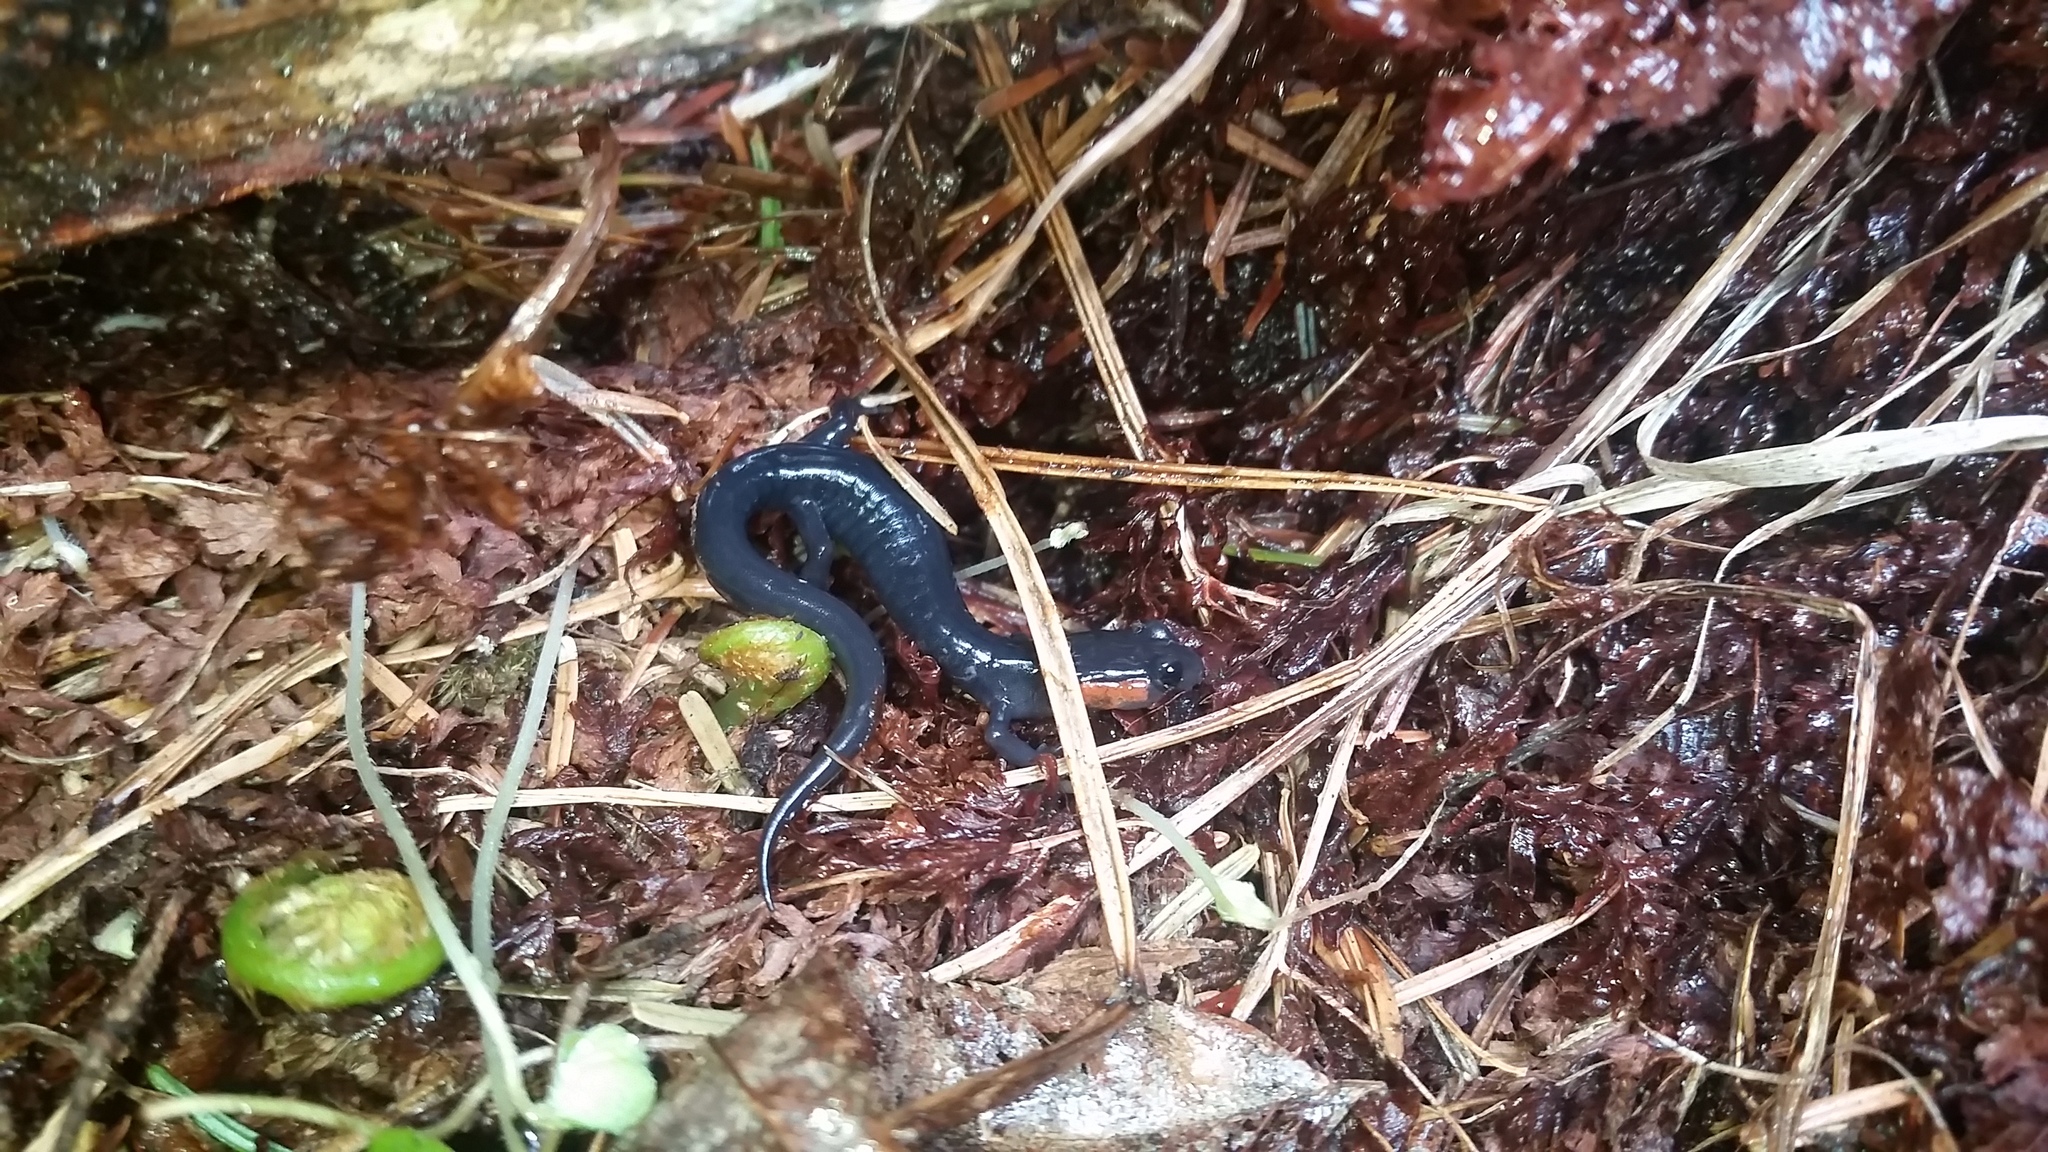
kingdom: Animalia
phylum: Chordata
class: Amphibia
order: Caudata
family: Plethodontidae
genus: Plethodon
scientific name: Plethodon jordani
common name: Red-cheeked salamander
